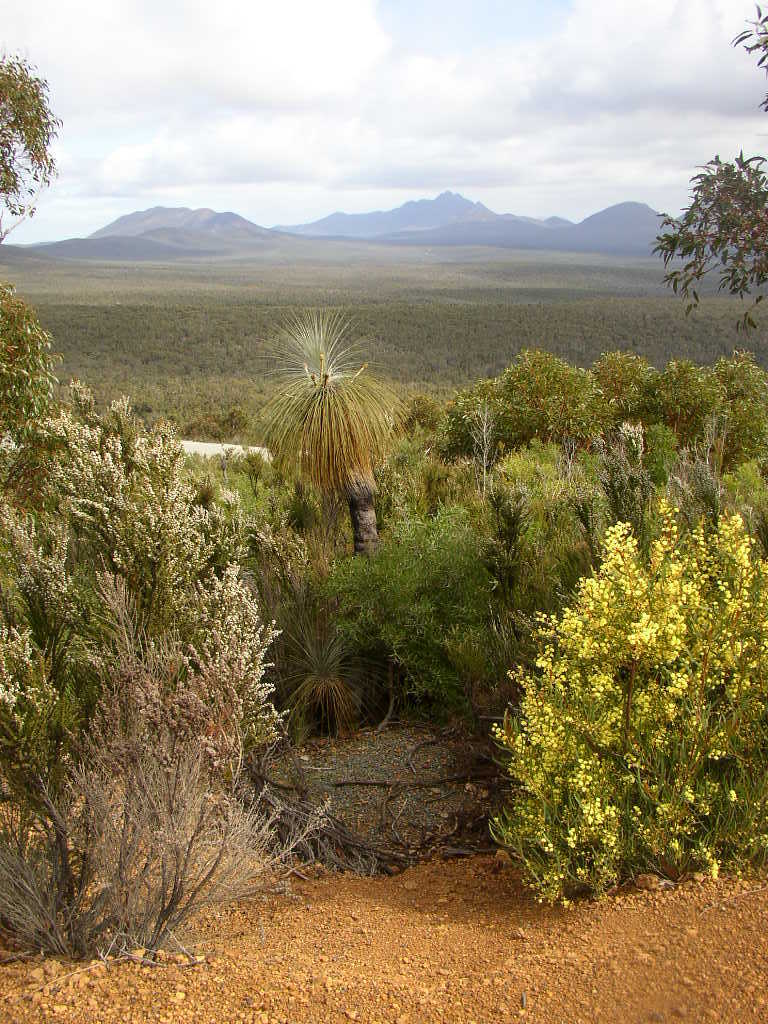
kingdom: Plantae
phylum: Tracheophyta
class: Liliopsida
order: Arecales
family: Dasypogonaceae
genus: Kingia
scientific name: Kingia australis
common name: Black gin
